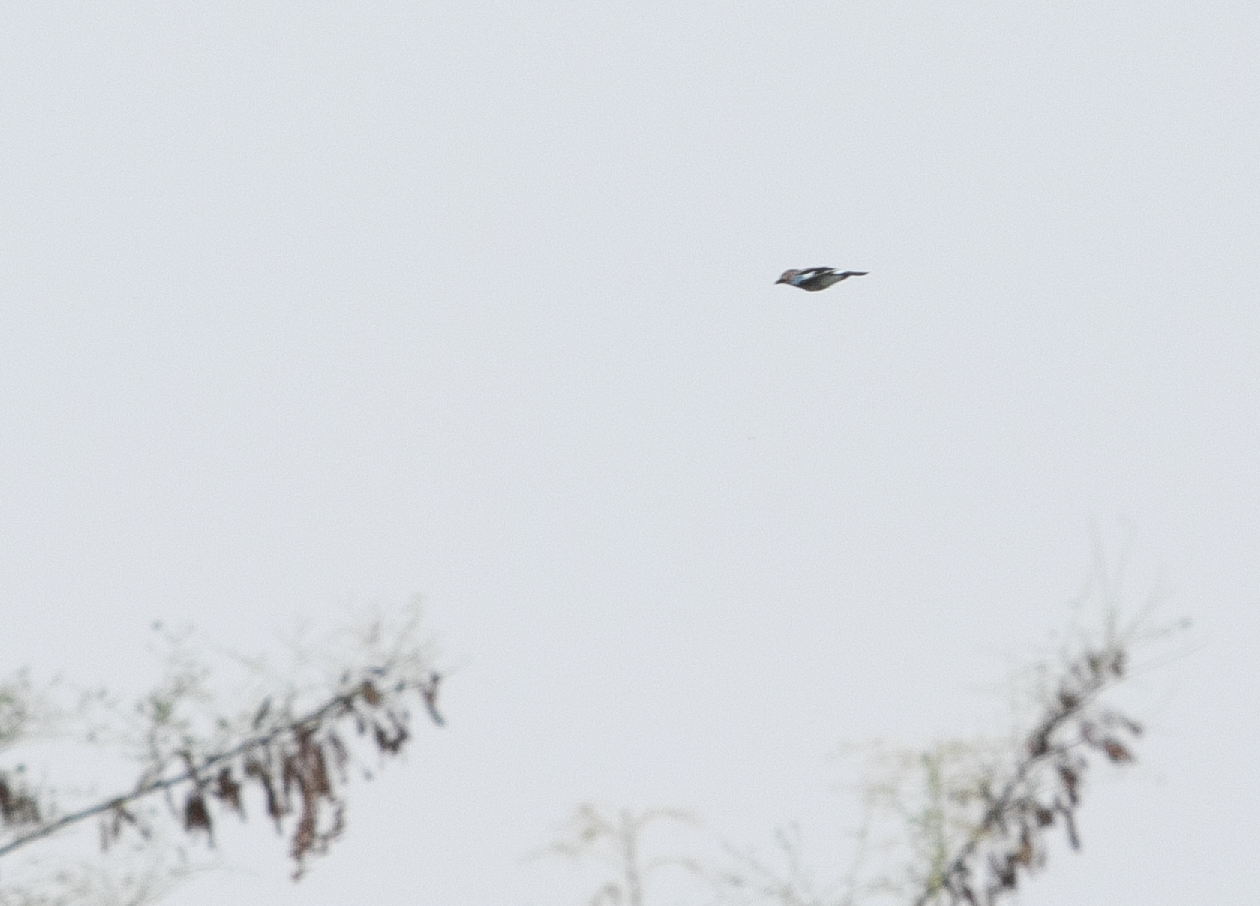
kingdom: Animalia
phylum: Chordata
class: Aves
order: Passeriformes
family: Corvidae
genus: Garrulus
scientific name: Garrulus glandarius
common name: Eurasian jay
